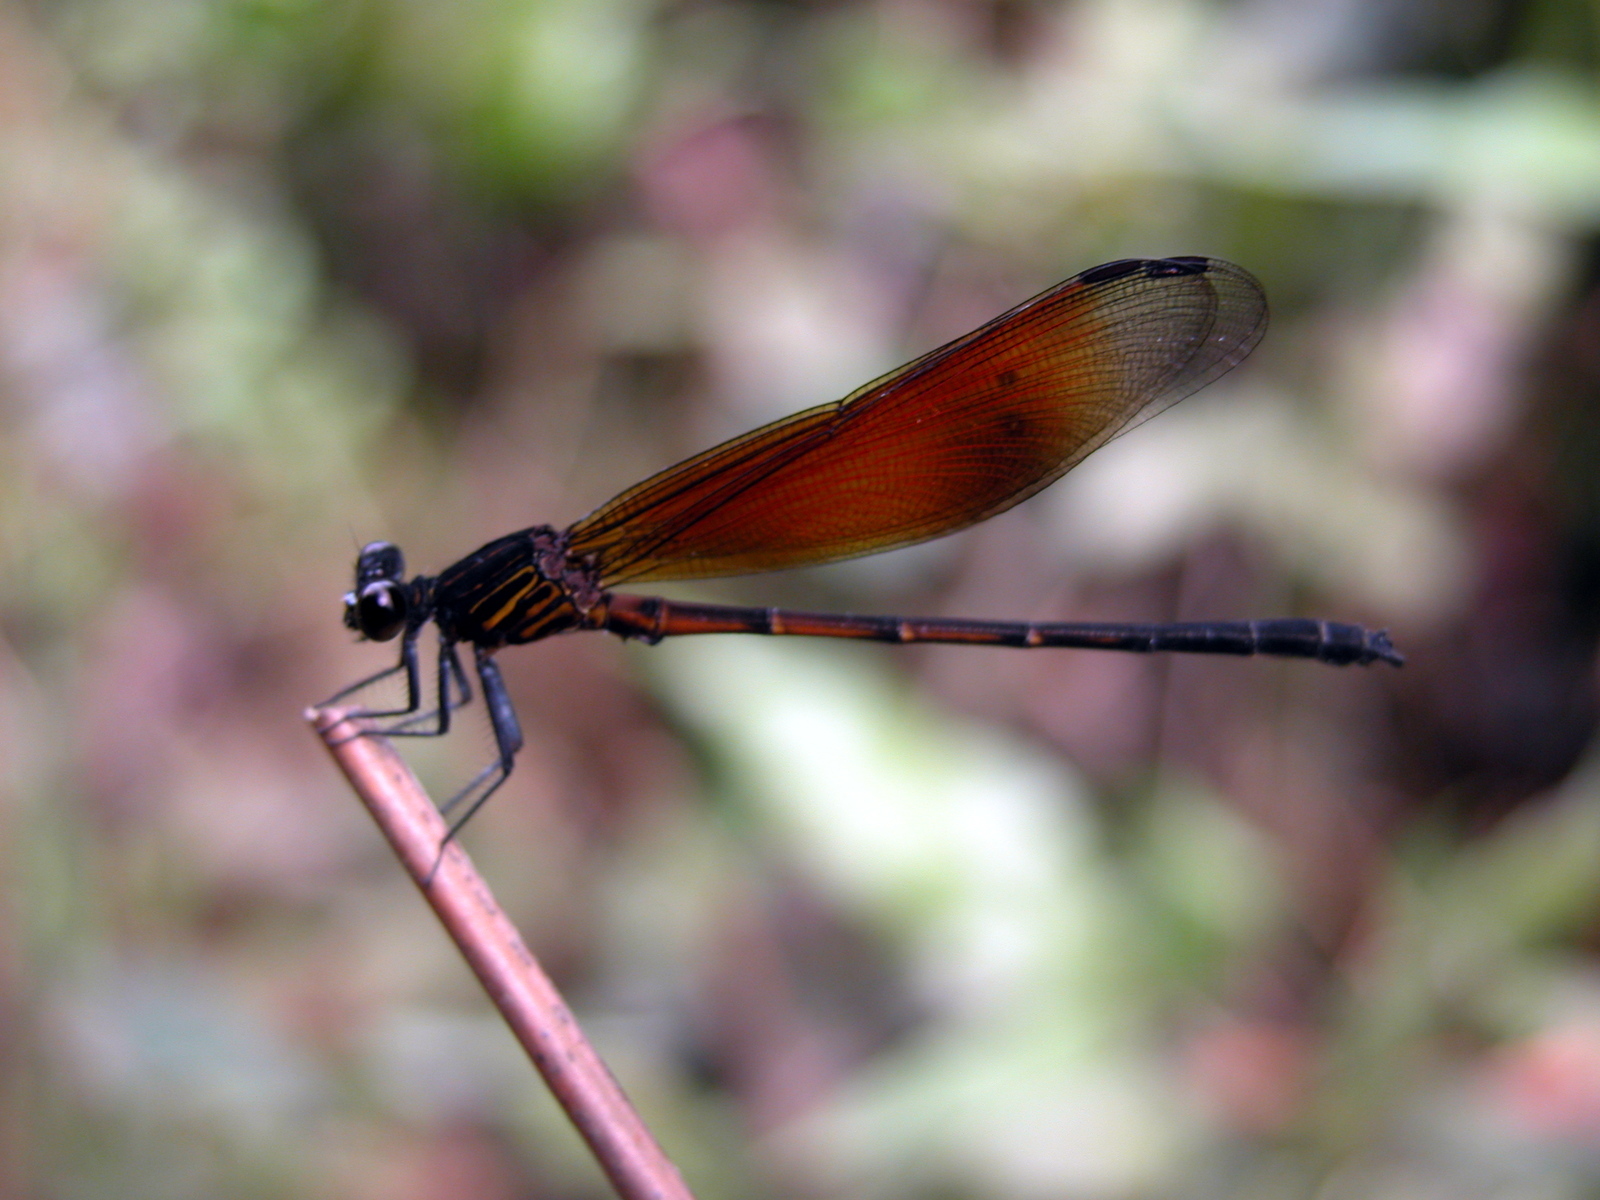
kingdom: Animalia
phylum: Arthropoda
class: Insecta
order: Odonata
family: Euphaeidae
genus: Euphaea
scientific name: Euphaea ochracea
